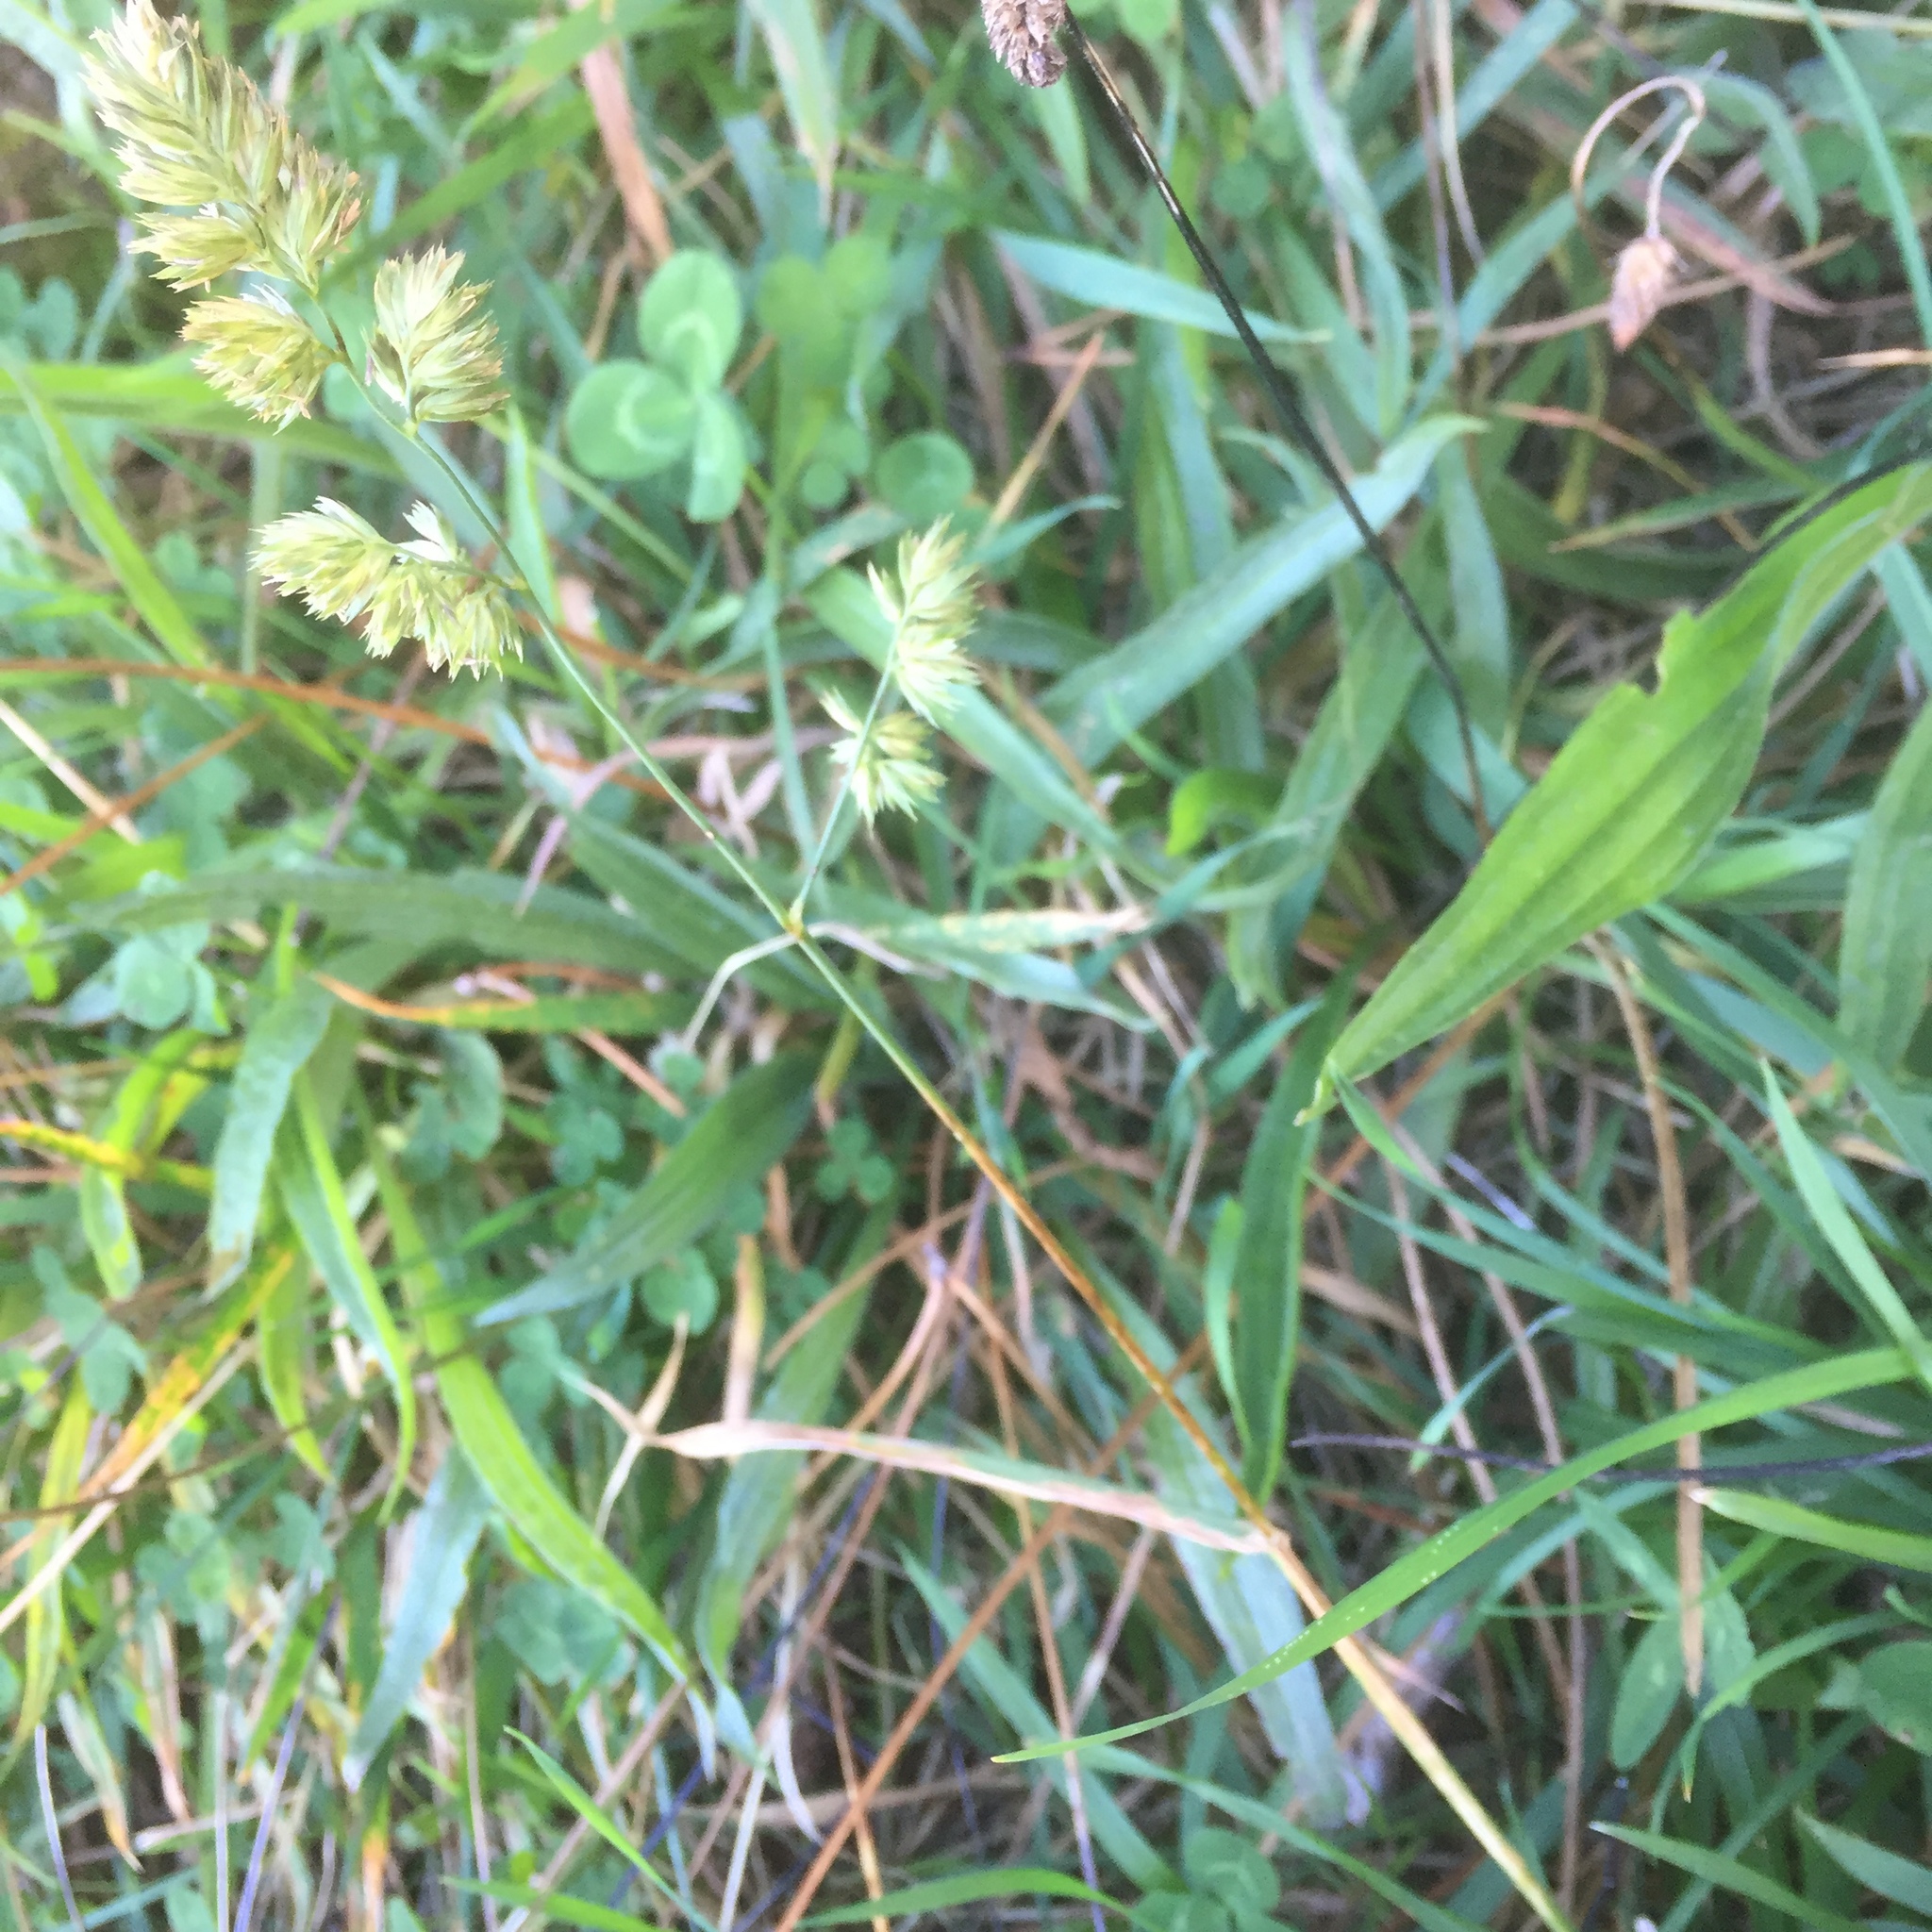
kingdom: Plantae
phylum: Tracheophyta
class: Liliopsida
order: Poales
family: Poaceae
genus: Dactylis
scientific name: Dactylis glomerata
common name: Orchardgrass
